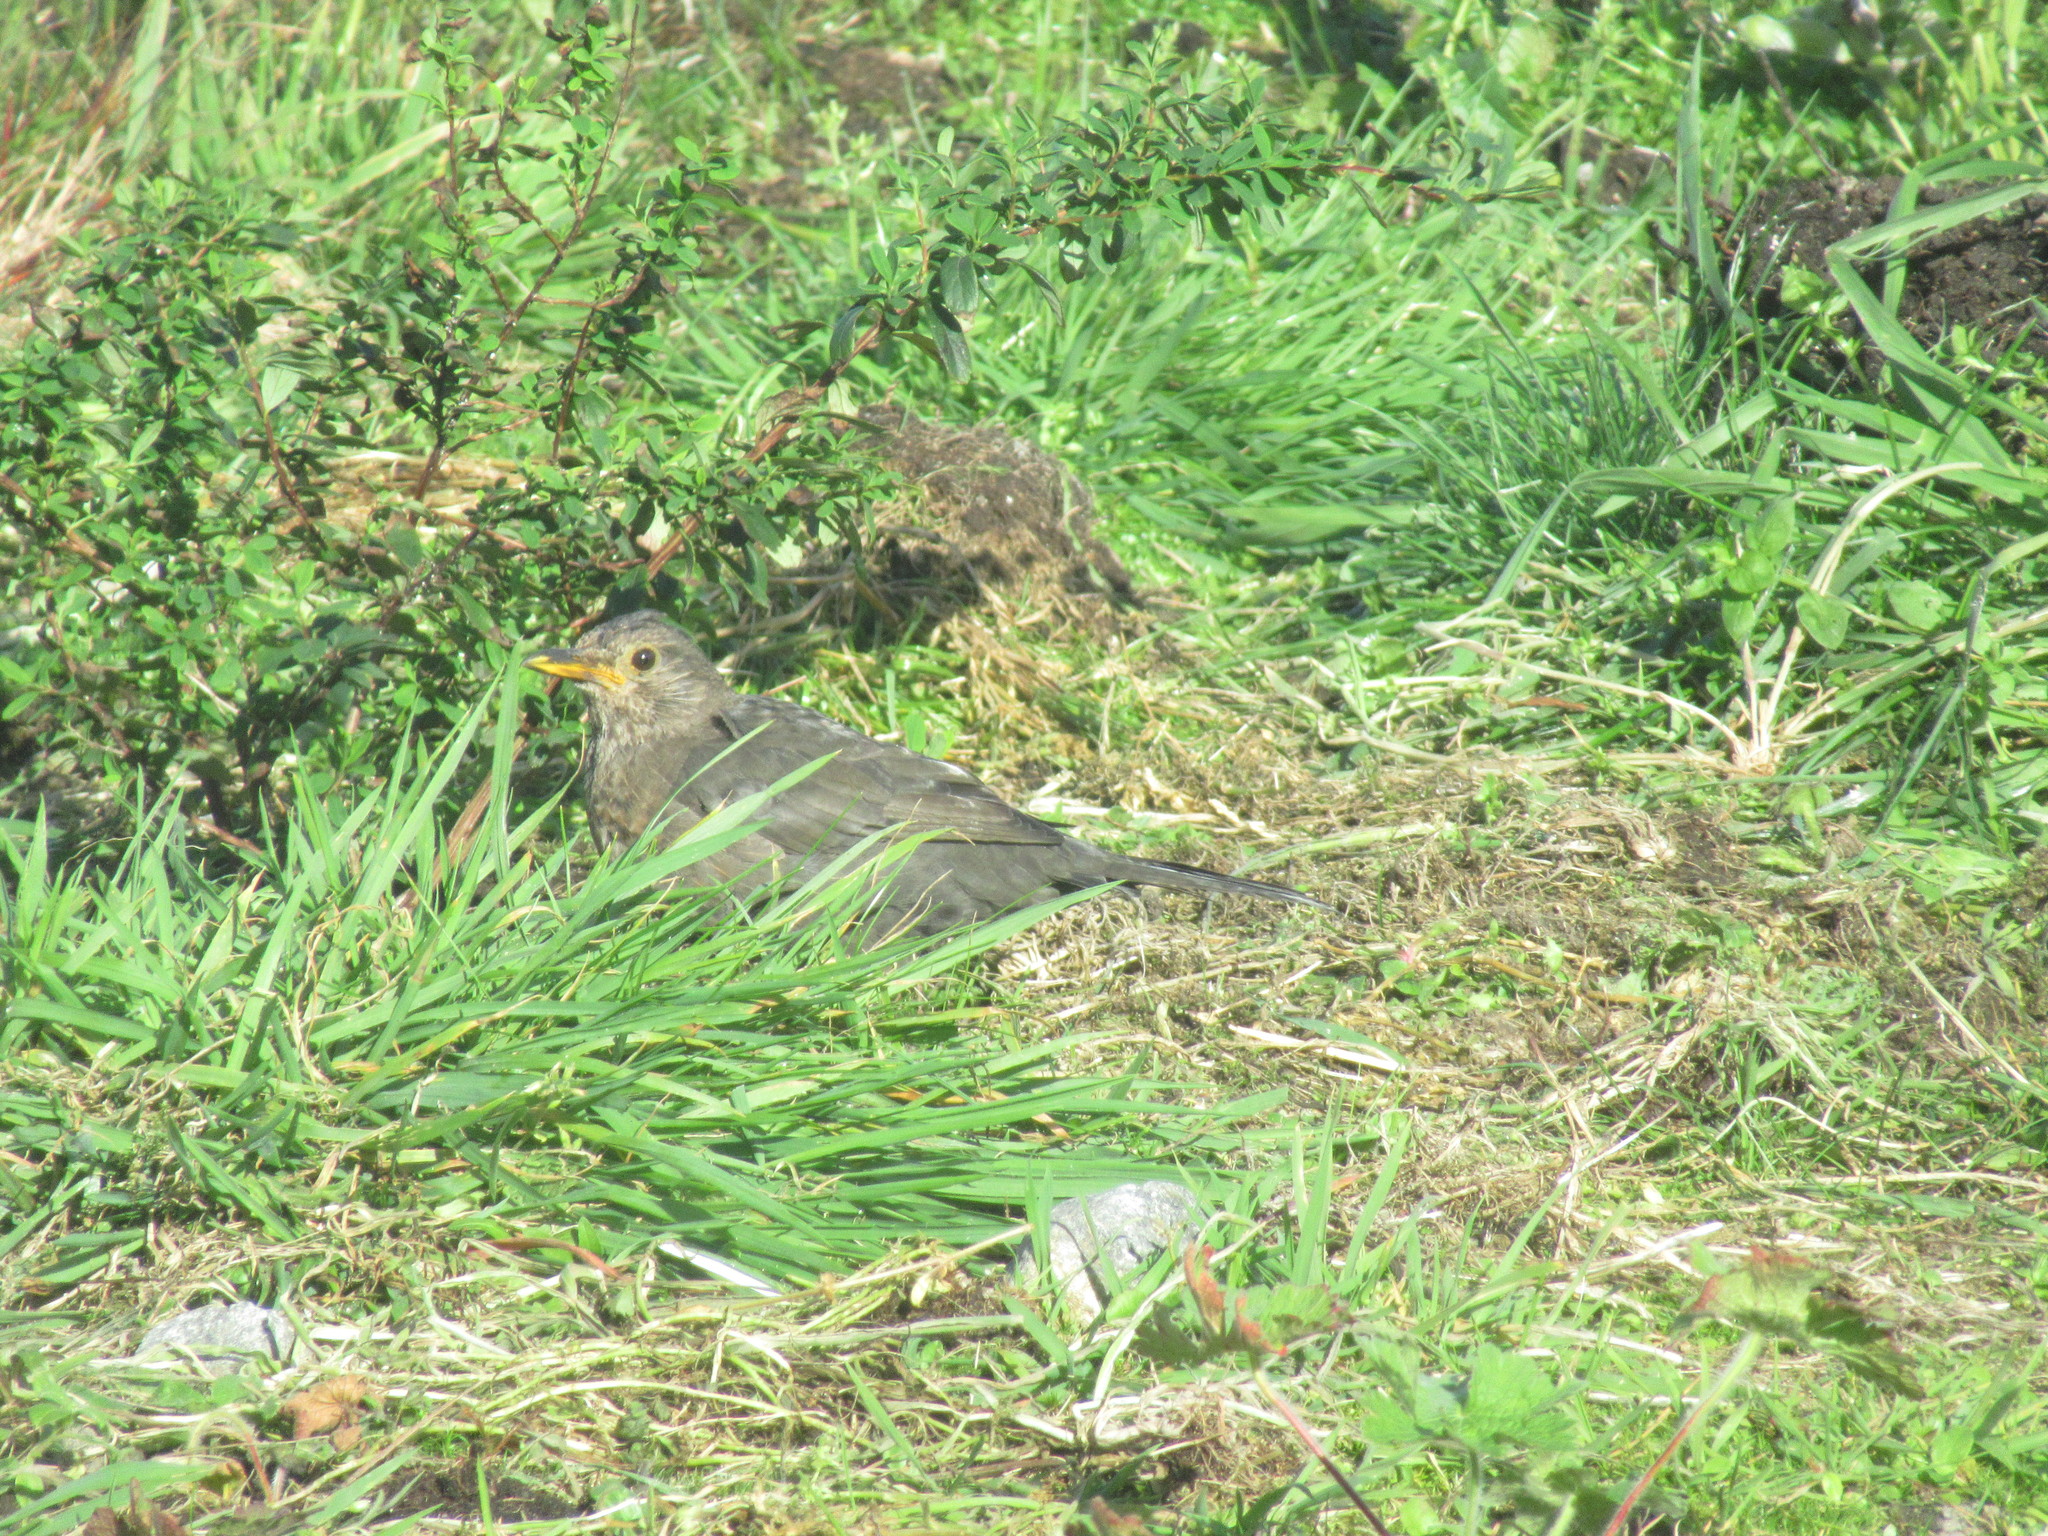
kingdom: Animalia
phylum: Chordata
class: Aves
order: Passeriformes
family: Turdidae
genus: Turdus
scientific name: Turdus merula
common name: Common blackbird
